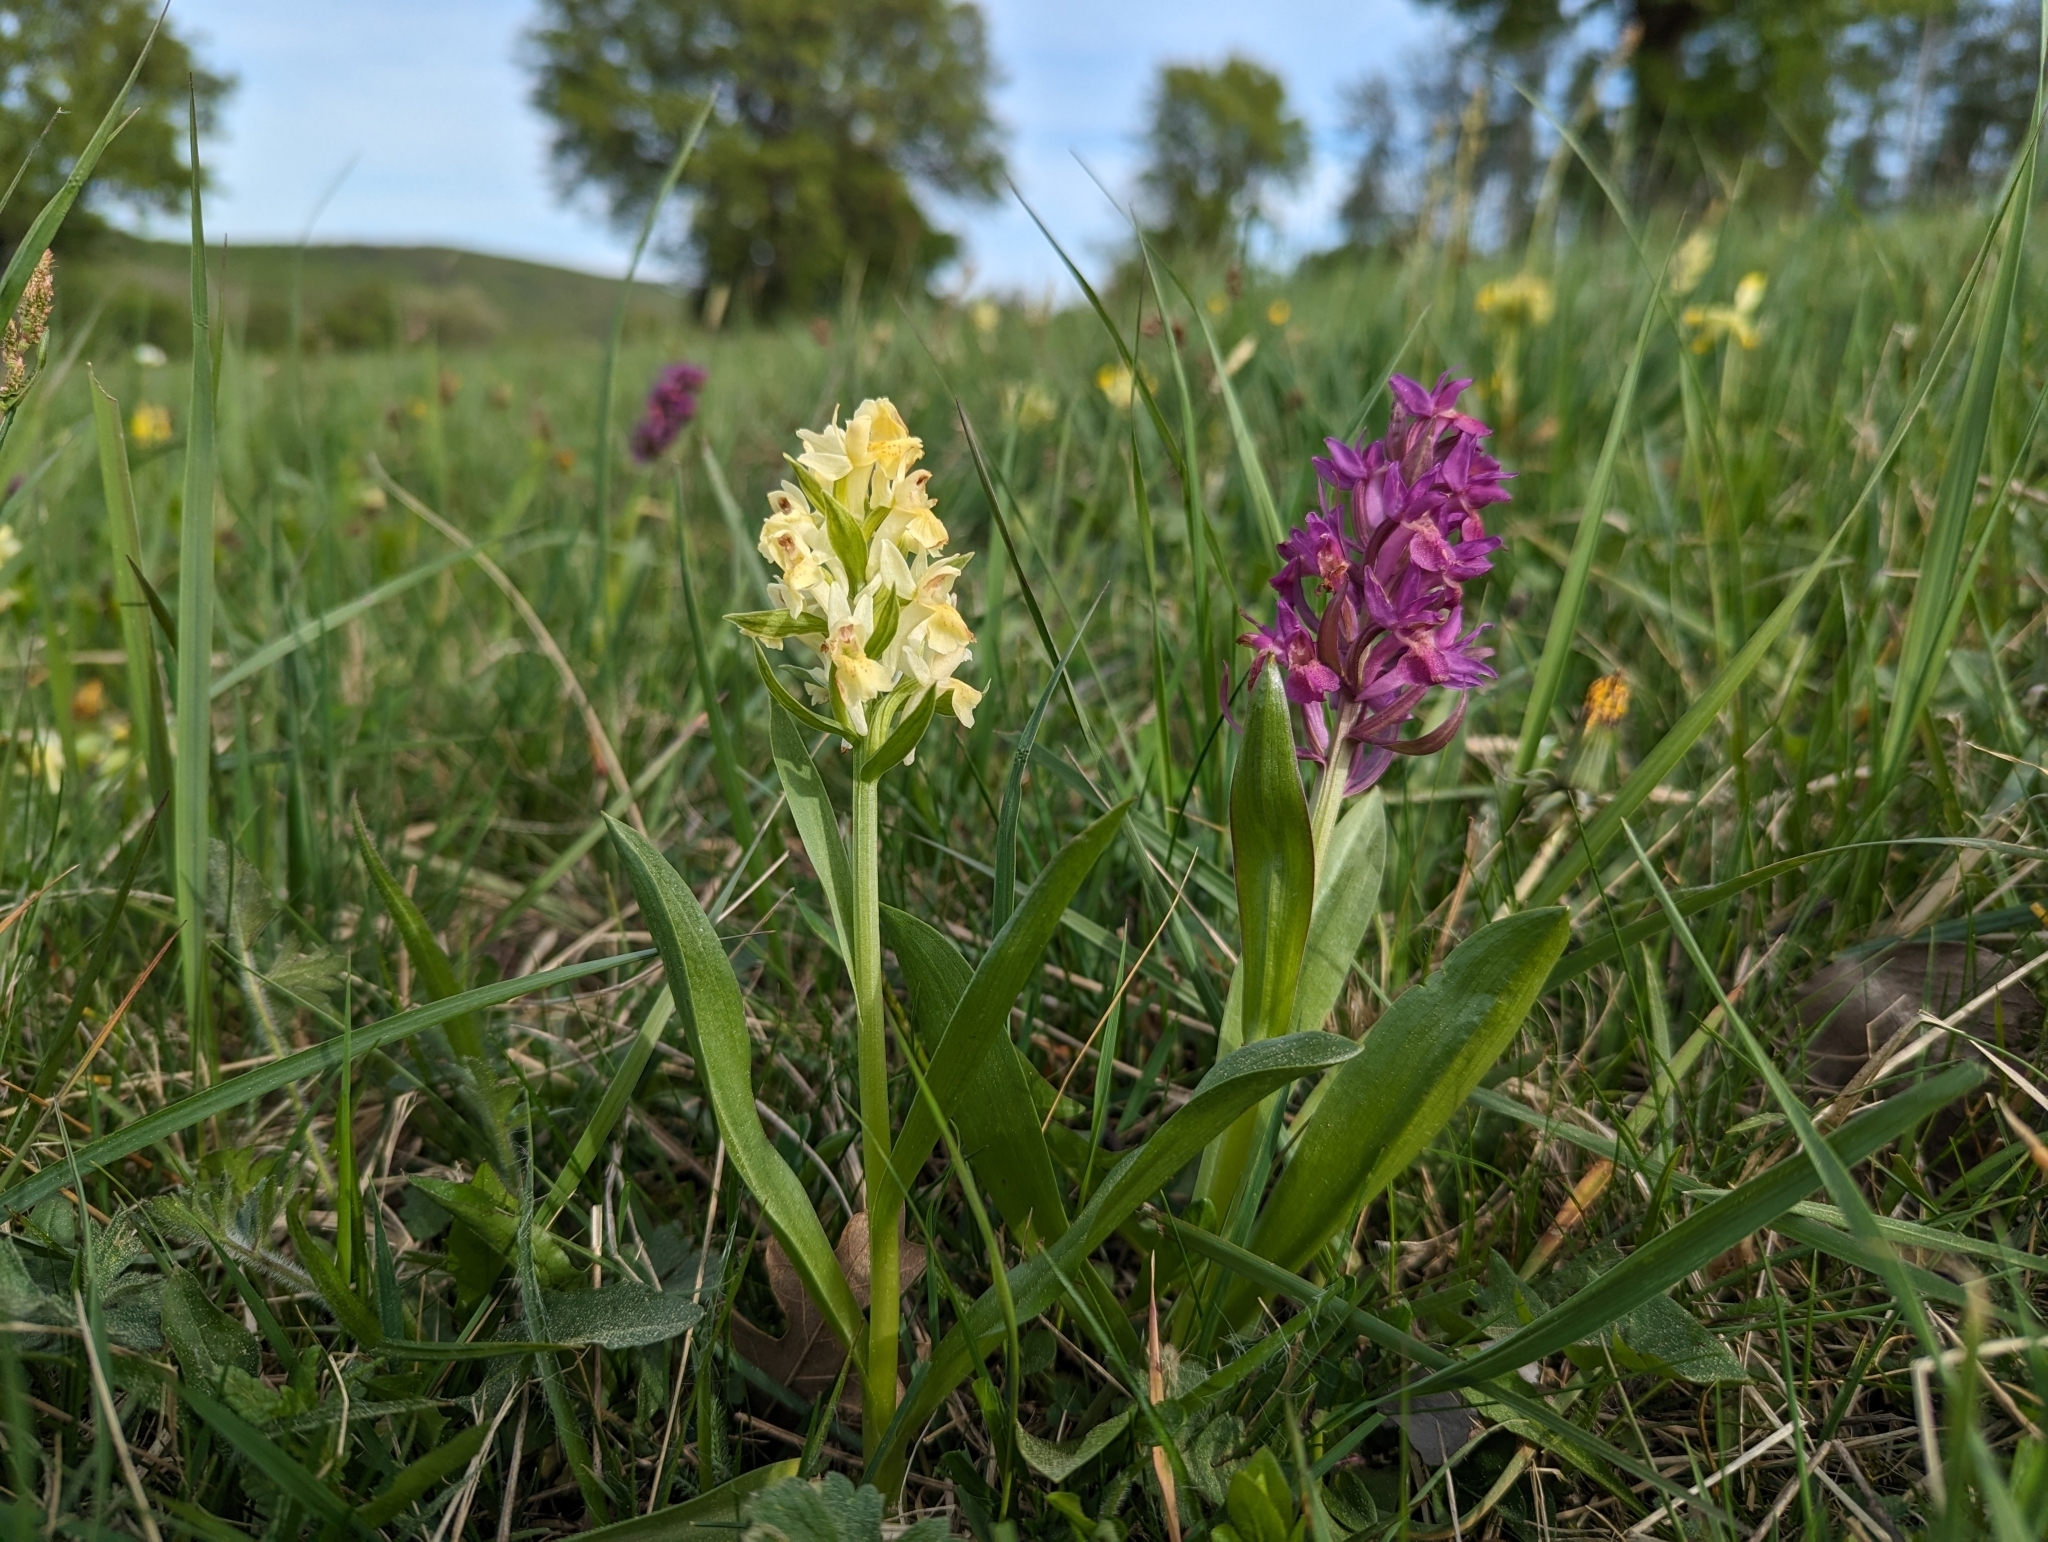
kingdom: Plantae
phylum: Tracheophyta
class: Liliopsida
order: Asparagales
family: Orchidaceae
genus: Dactylorhiza
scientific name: Dactylorhiza sambucina
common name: Elder-flowered orchid
